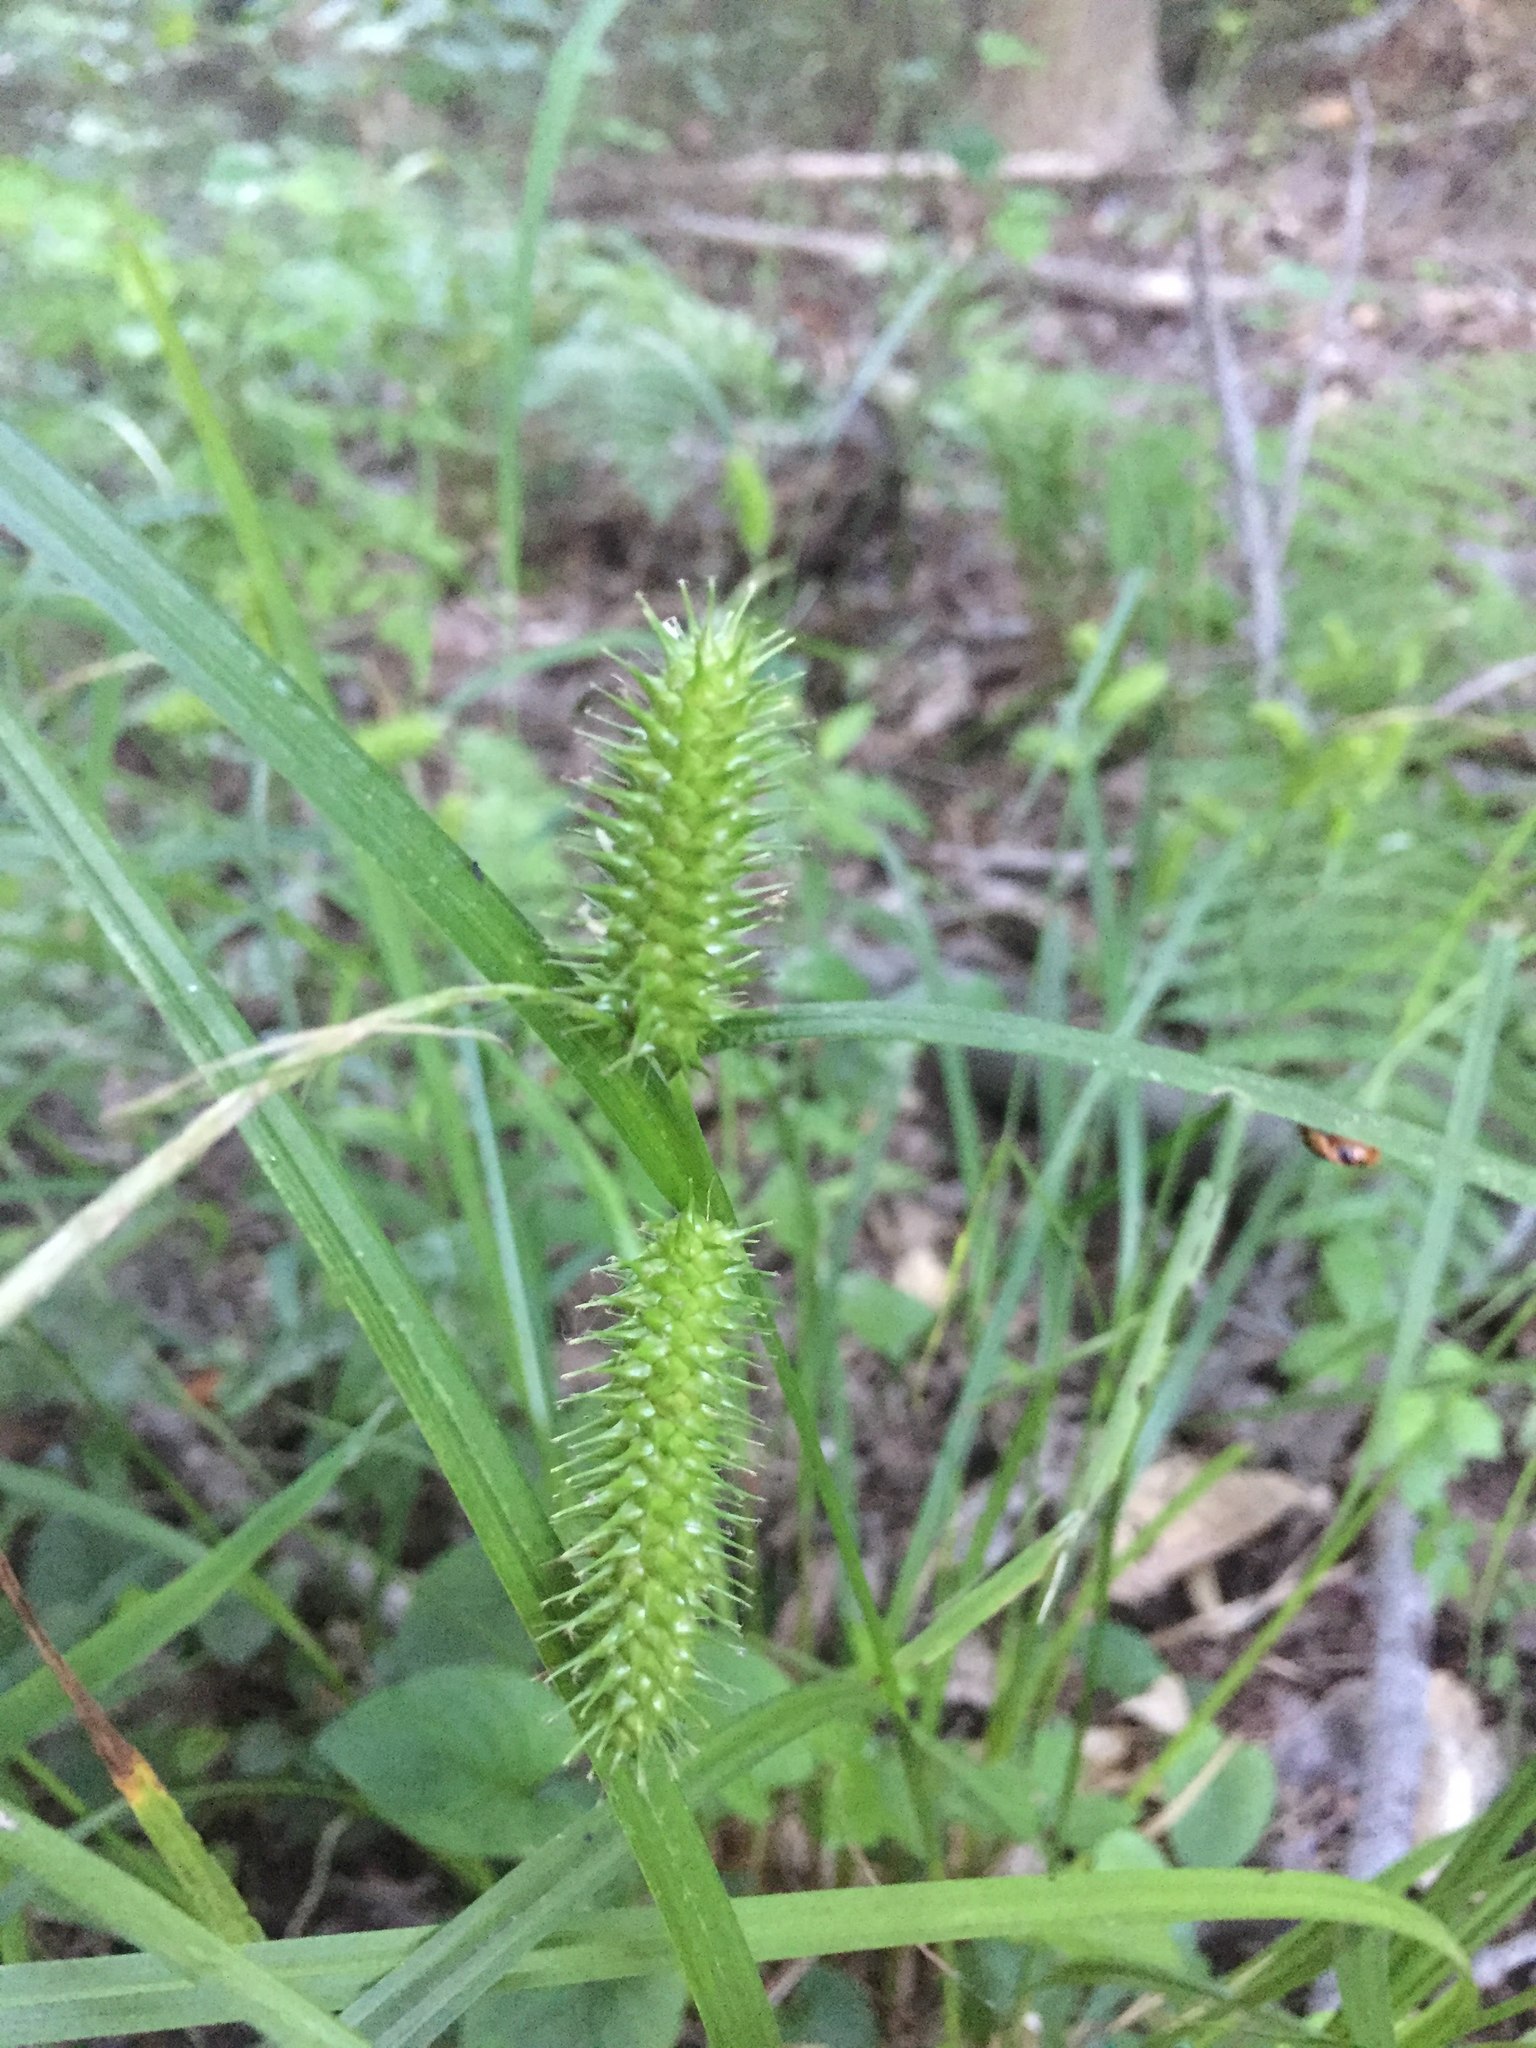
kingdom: Plantae
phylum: Tracheophyta
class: Liliopsida
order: Poales
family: Cyperaceae
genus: Carex
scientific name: Carex lurida
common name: Sallow sedge
